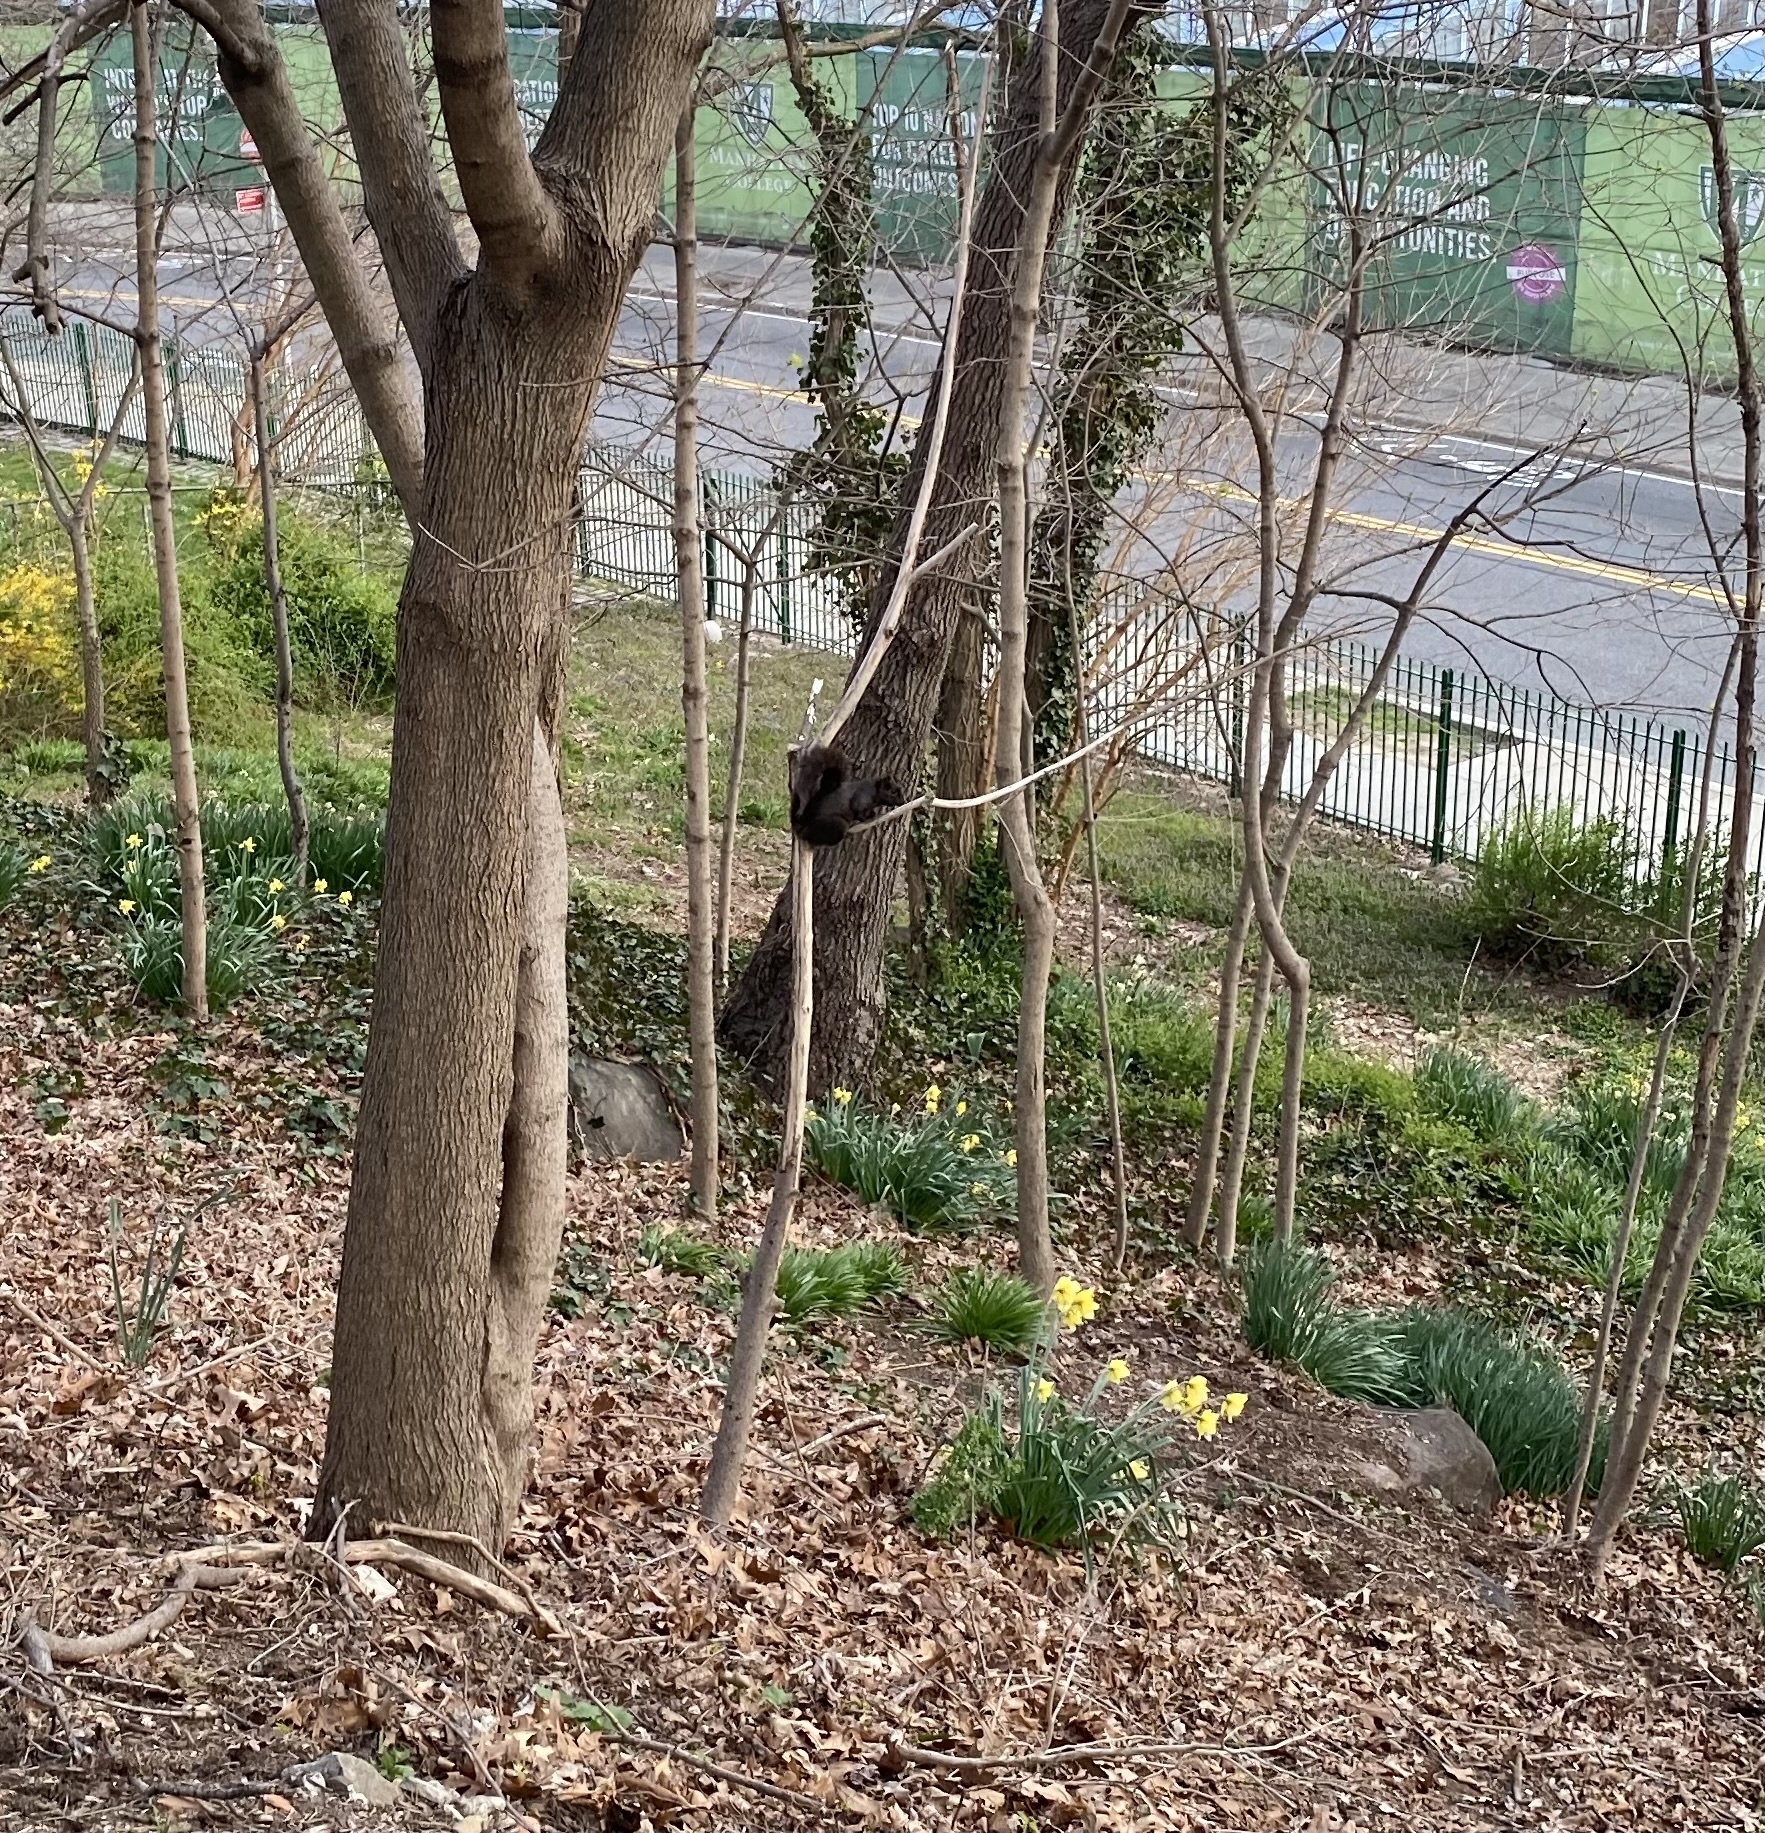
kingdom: Animalia
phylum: Chordata
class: Mammalia
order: Rodentia
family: Sciuridae
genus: Sciurus
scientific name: Sciurus carolinensis
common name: Eastern gray squirrel
